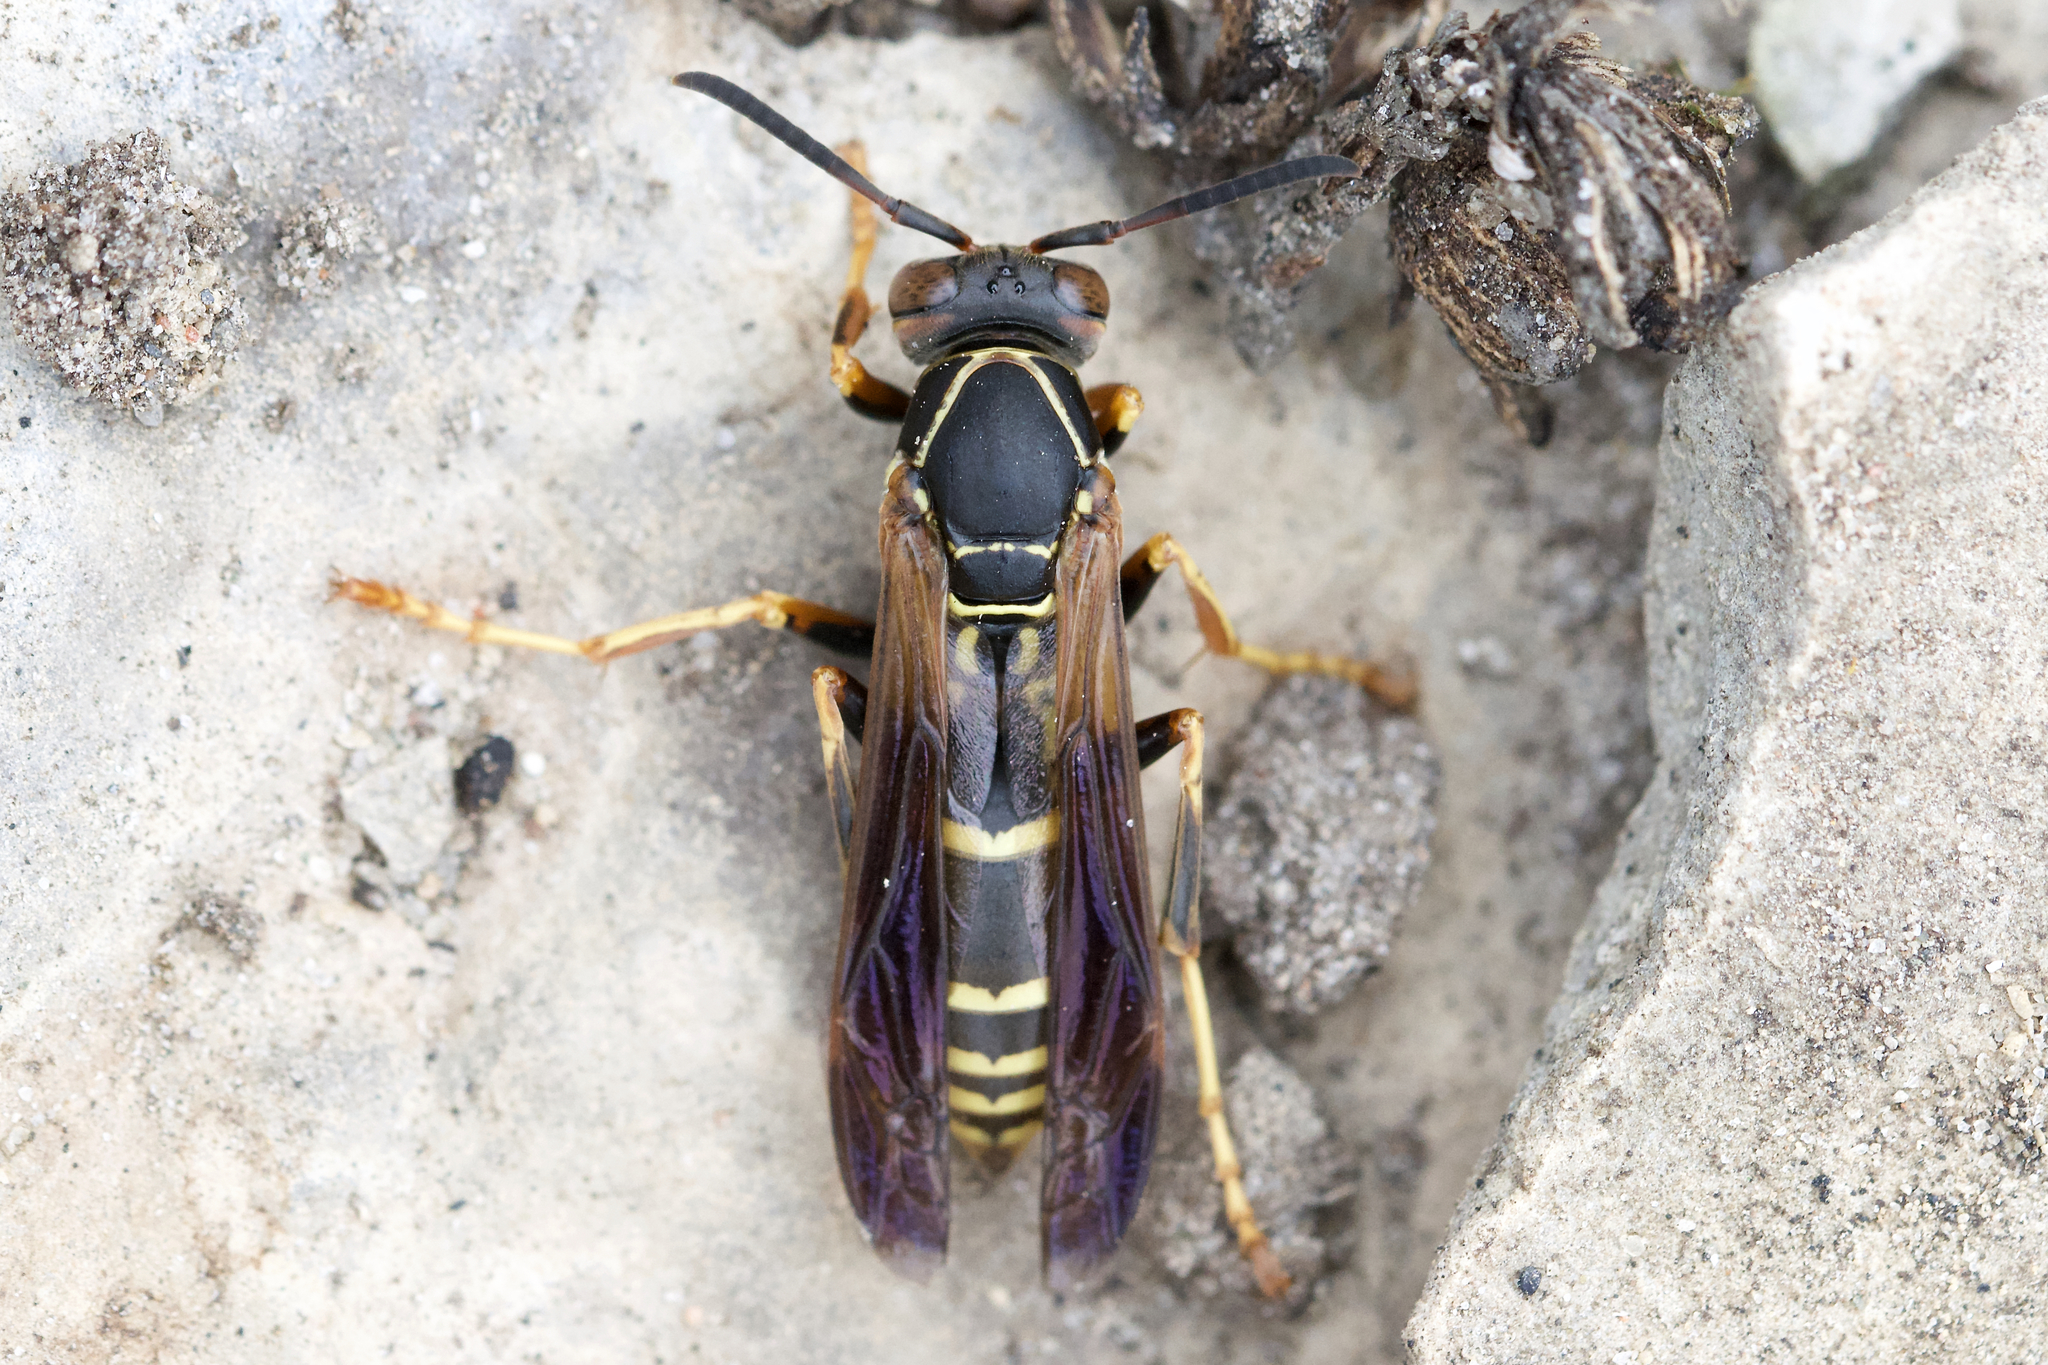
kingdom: Animalia
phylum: Arthropoda
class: Insecta
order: Hymenoptera
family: Eumenidae
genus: Polistes
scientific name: Polistes fuscatus
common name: Dark paper wasp
